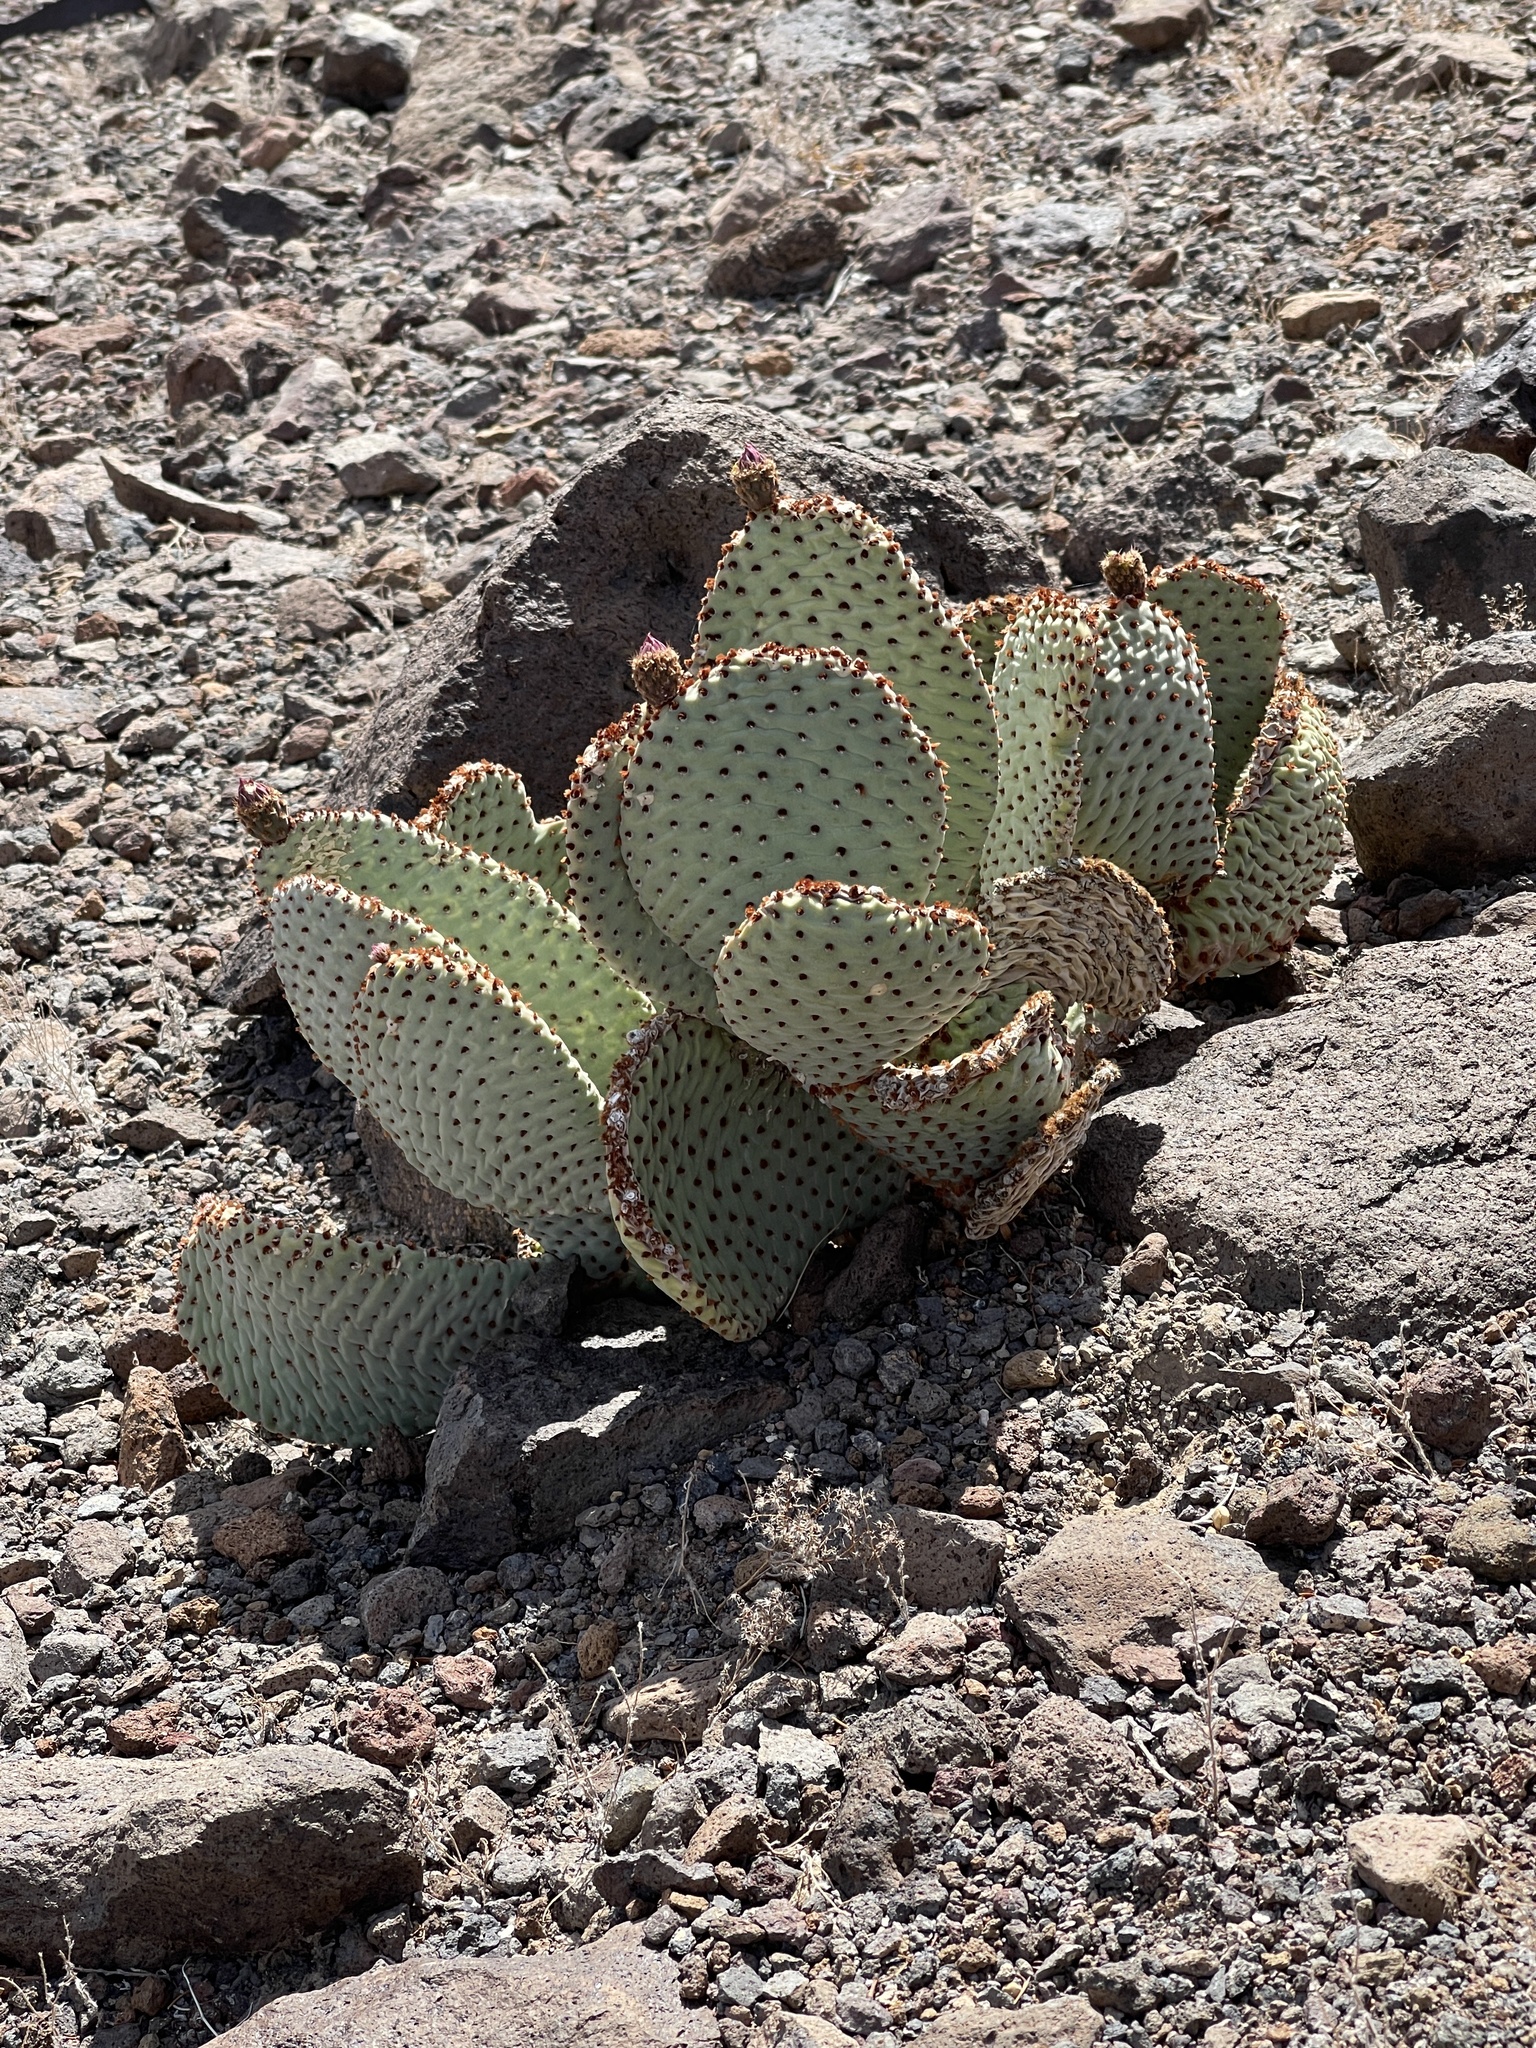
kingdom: Plantae
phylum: Tracheophyta
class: Magnoliopsida
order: Caryophyllales
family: Cactaceae
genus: Opuntia
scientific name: Opuntia basilaris
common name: Beavertail prickly-pear
